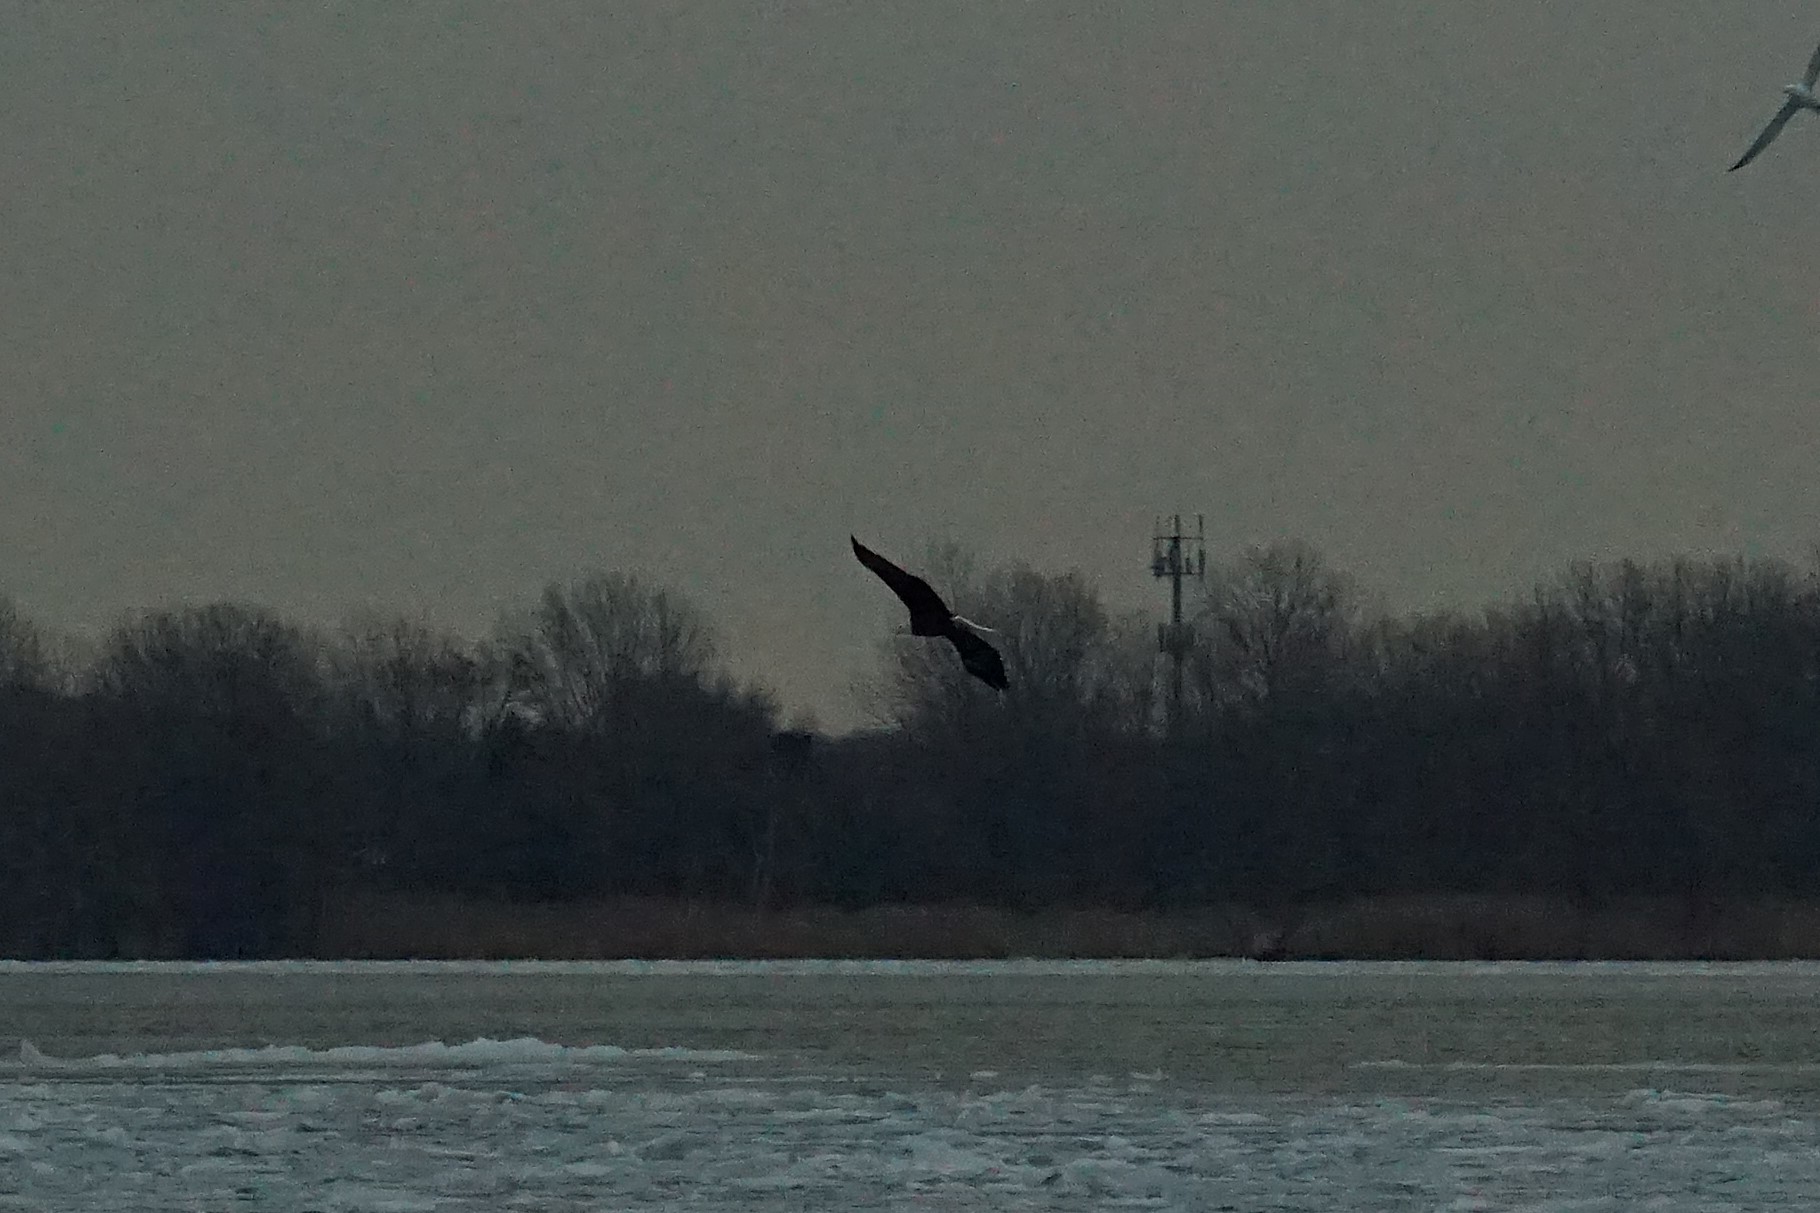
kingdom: Animalia
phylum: Chordata
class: Aves
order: Accipitriformes
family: Accipitridae
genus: Haliaeetus
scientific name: Haliaeetus leucocephalus
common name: Bald eagle
